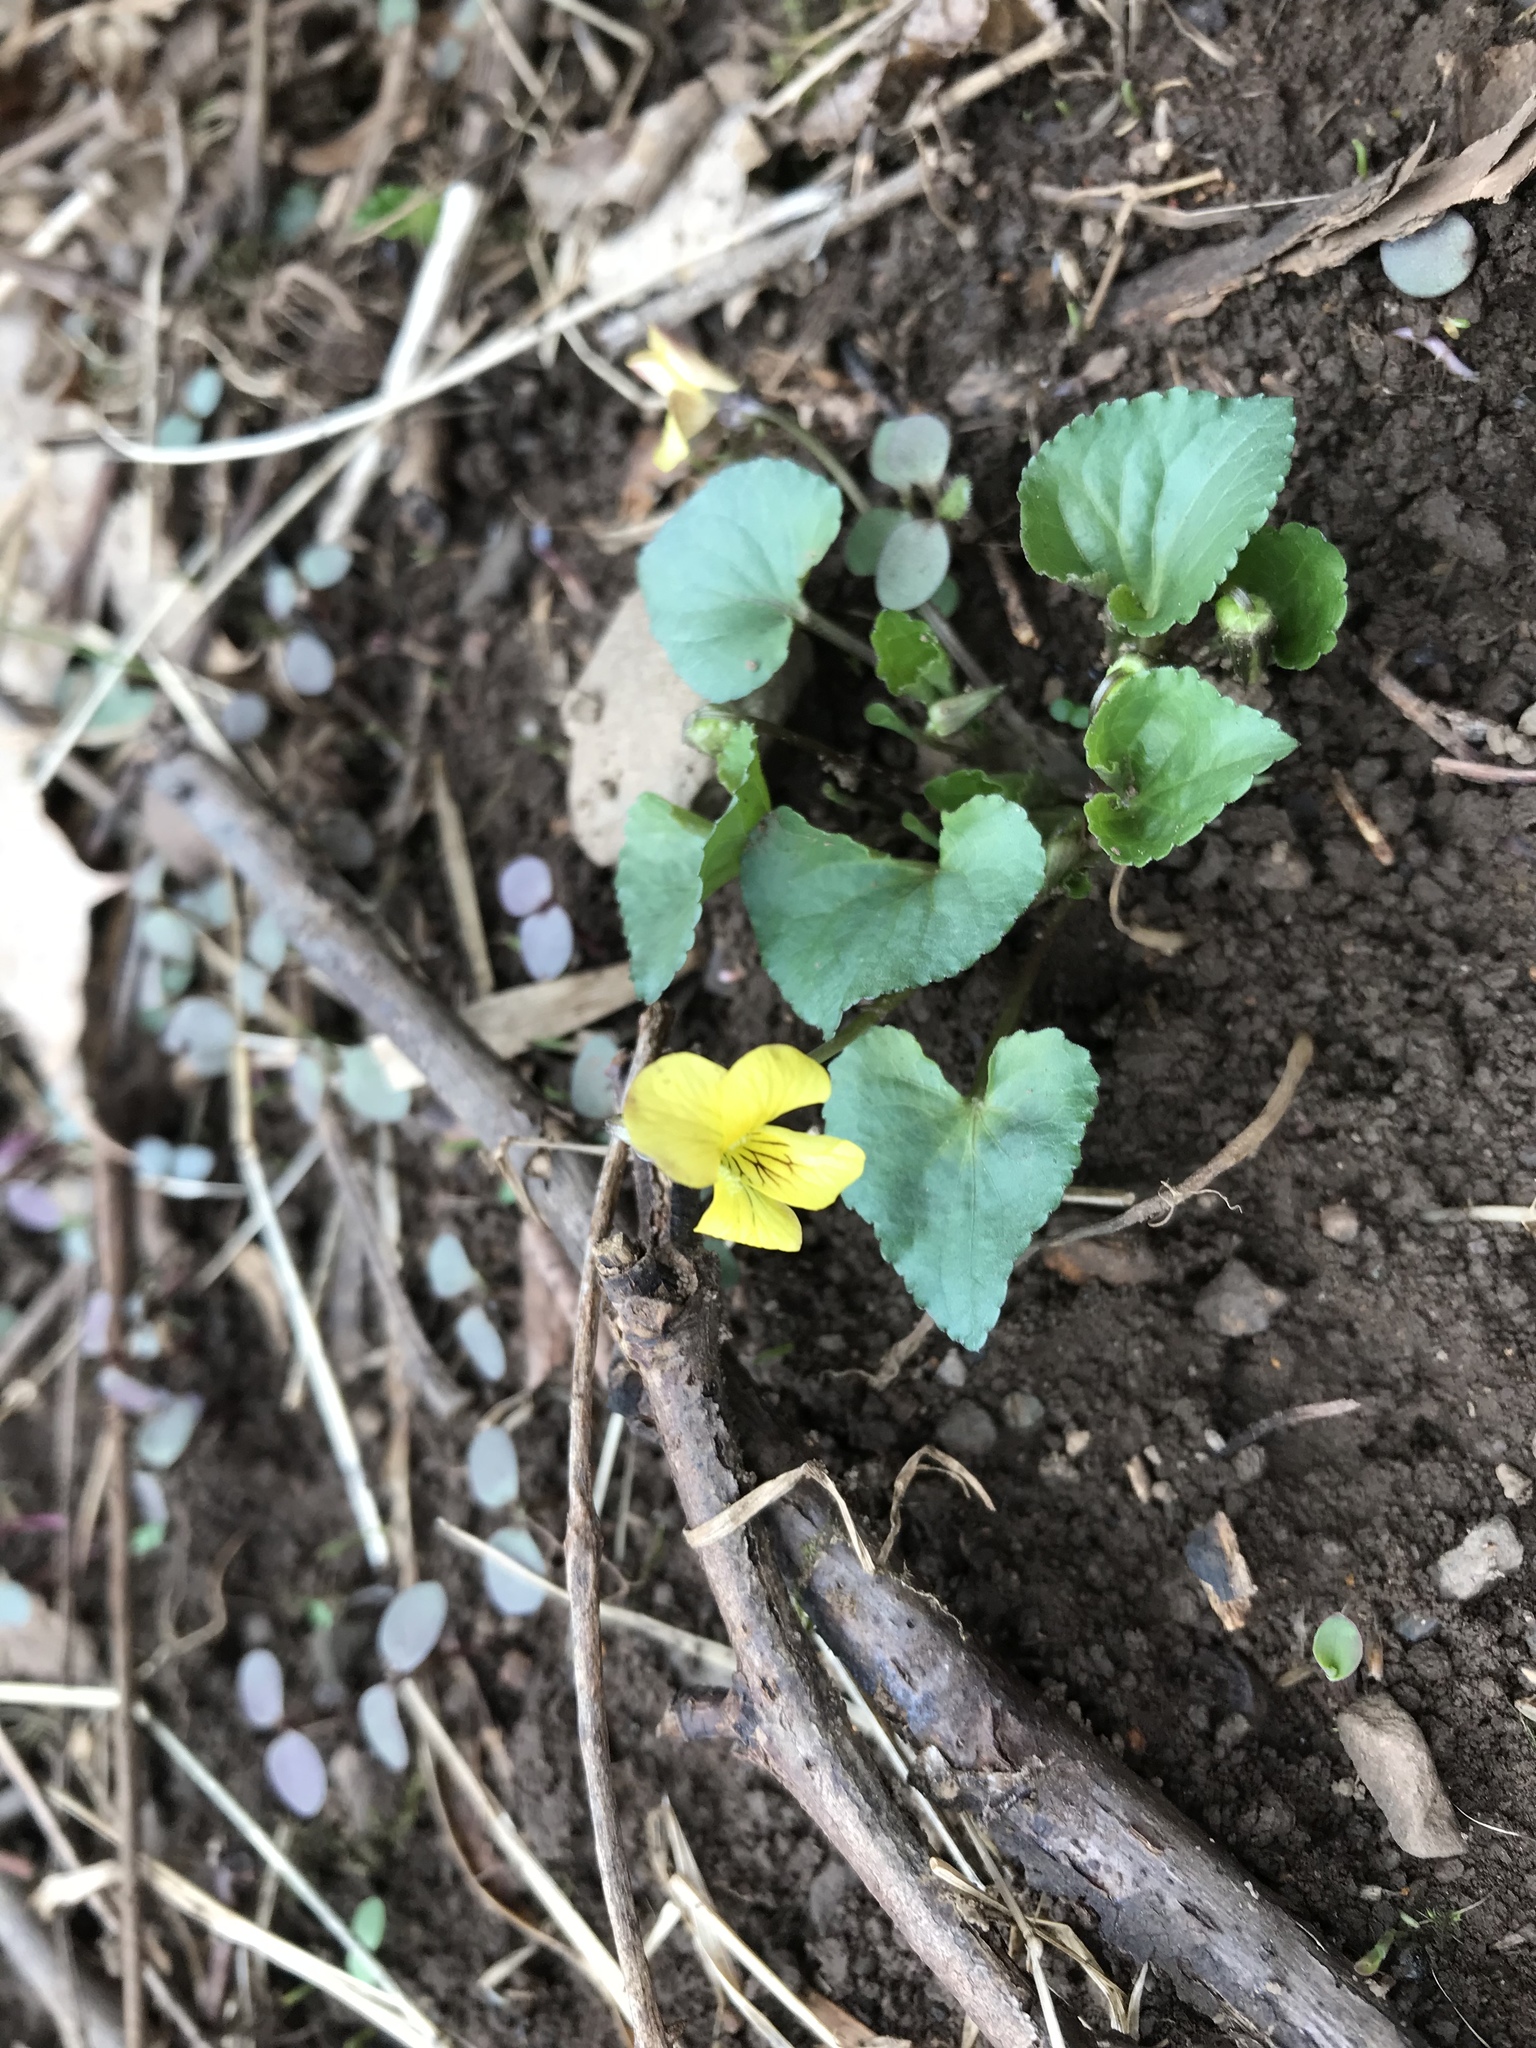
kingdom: Plantae
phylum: Tracheophyta
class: Magnoliopsida
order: Malpighiales
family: Violaceae
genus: Viola
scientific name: Viola eriocarpa
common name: Smooth yellow violet
